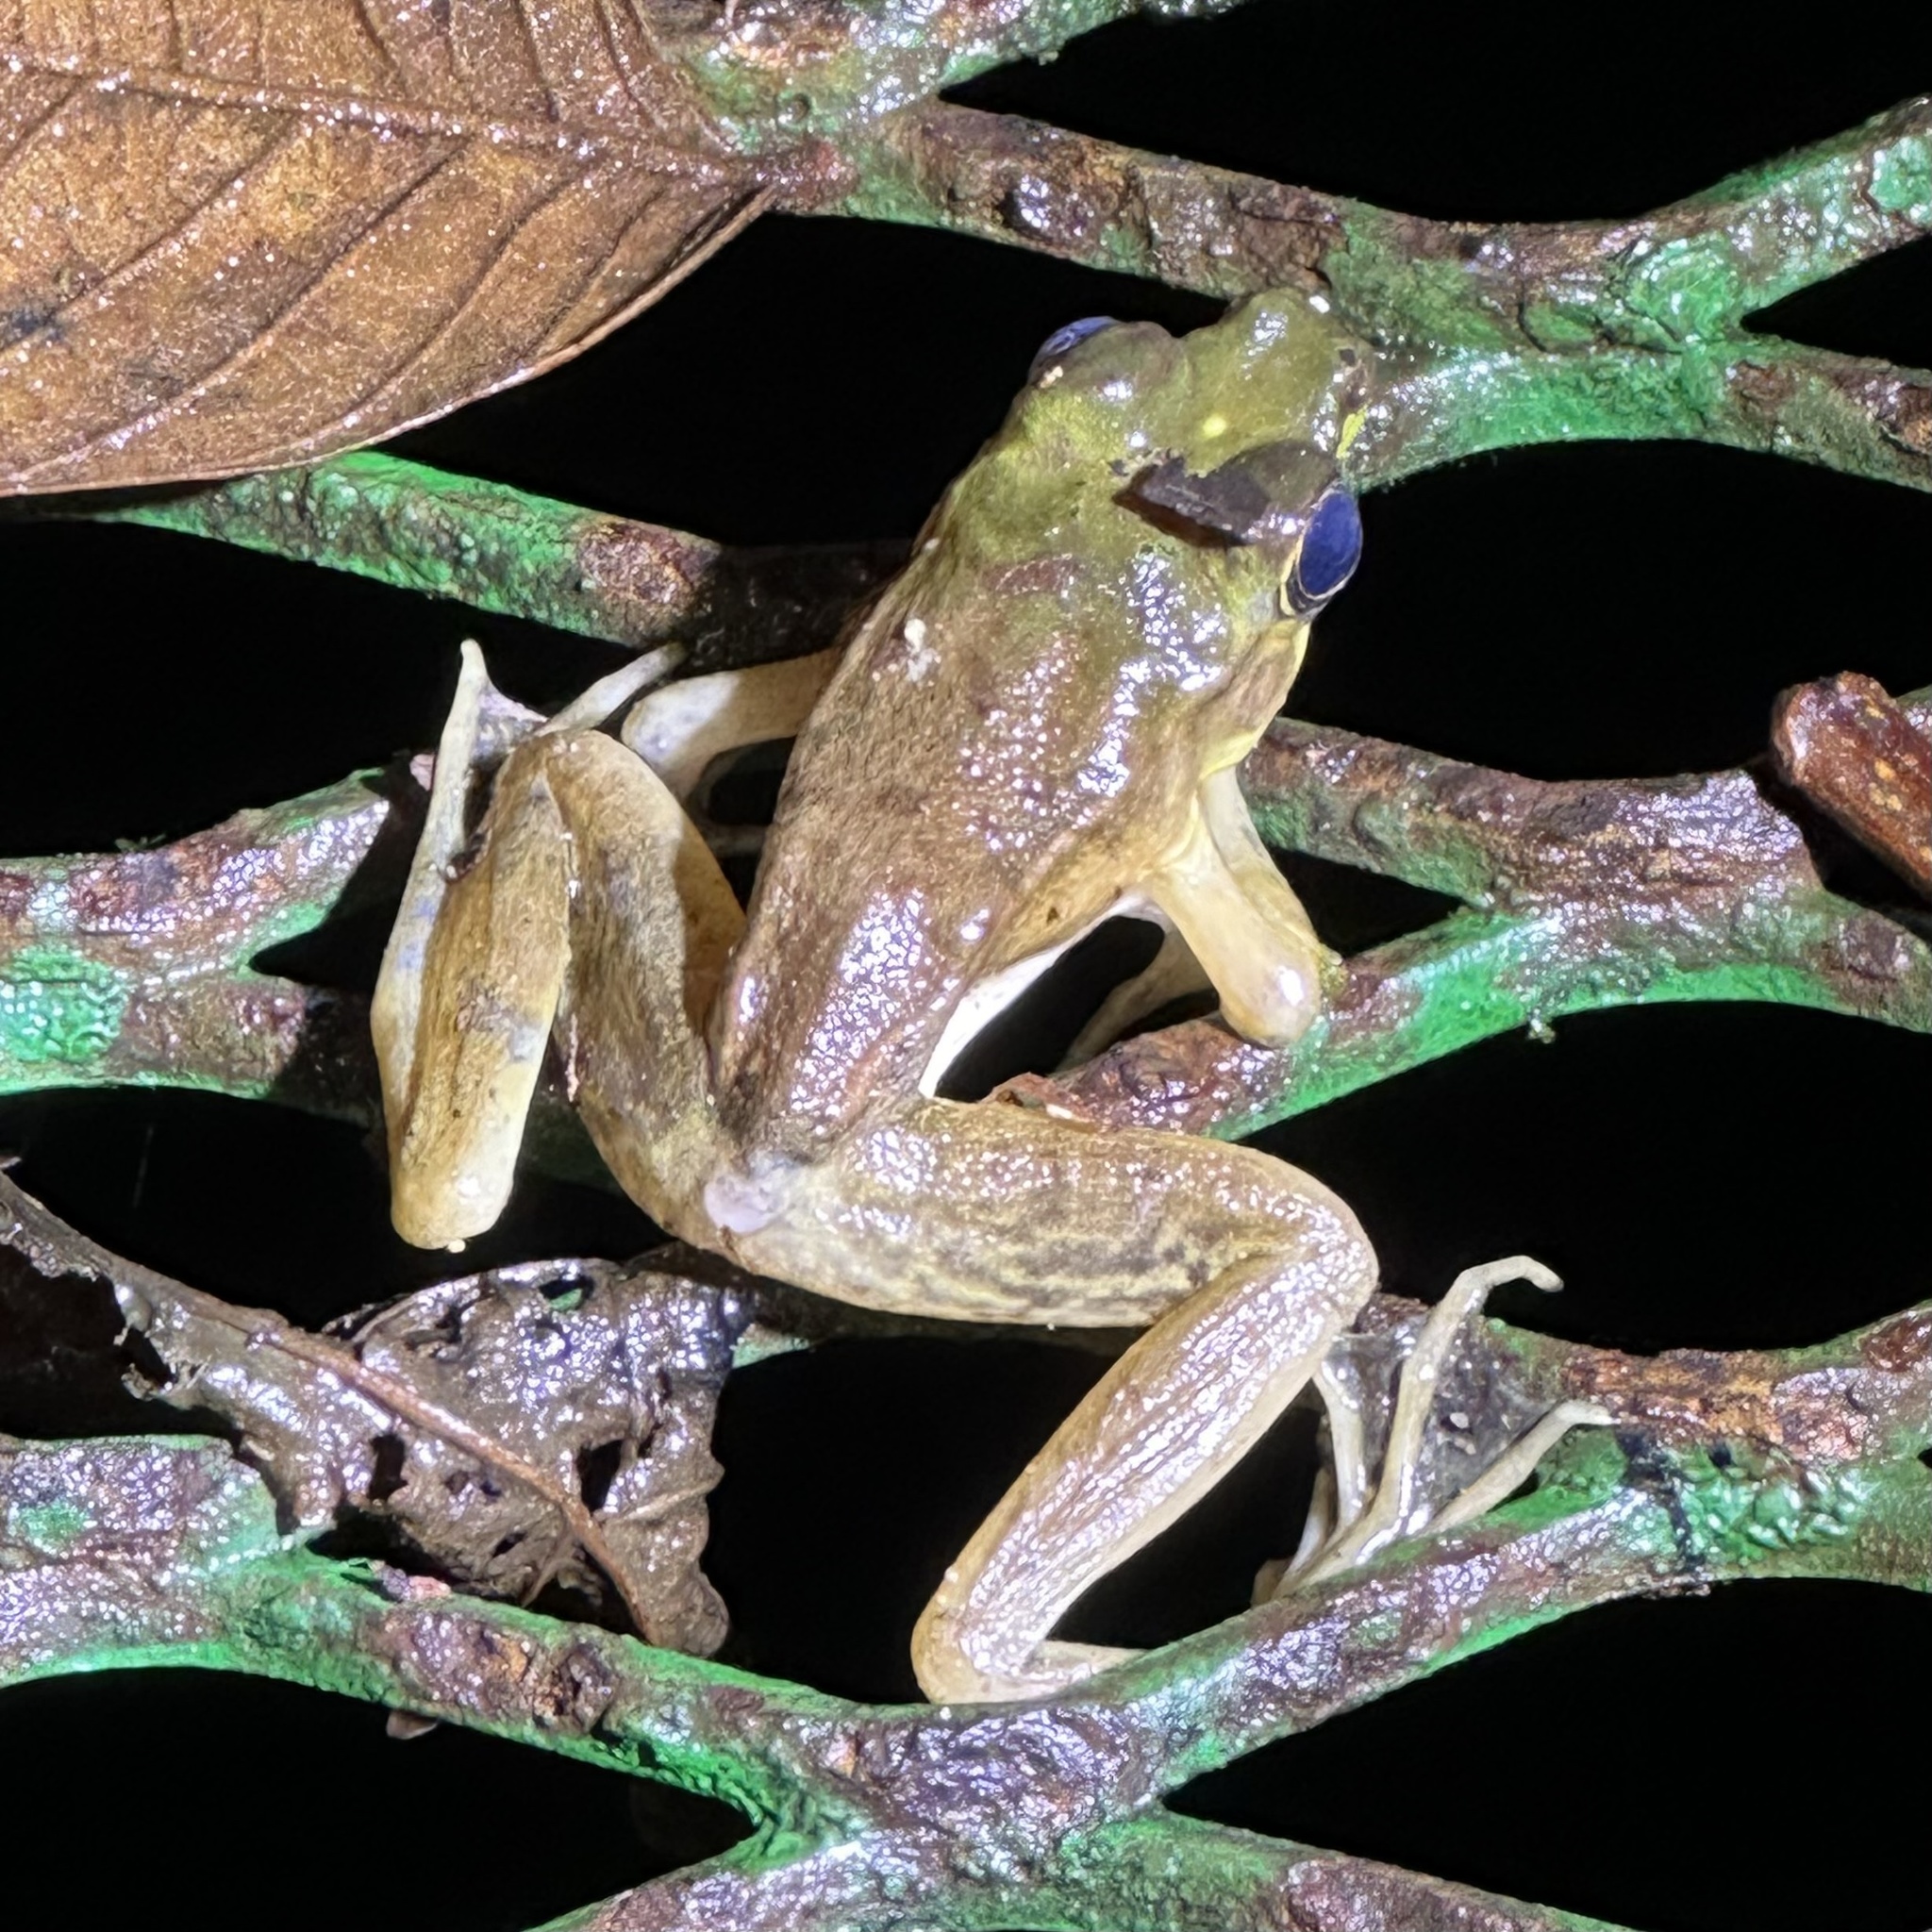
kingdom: Animalia
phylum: Chordata
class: Amphibia
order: Anura
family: Ranidae
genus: Lithobates
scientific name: Lithobates vaillanti
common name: Vaillant's frog
